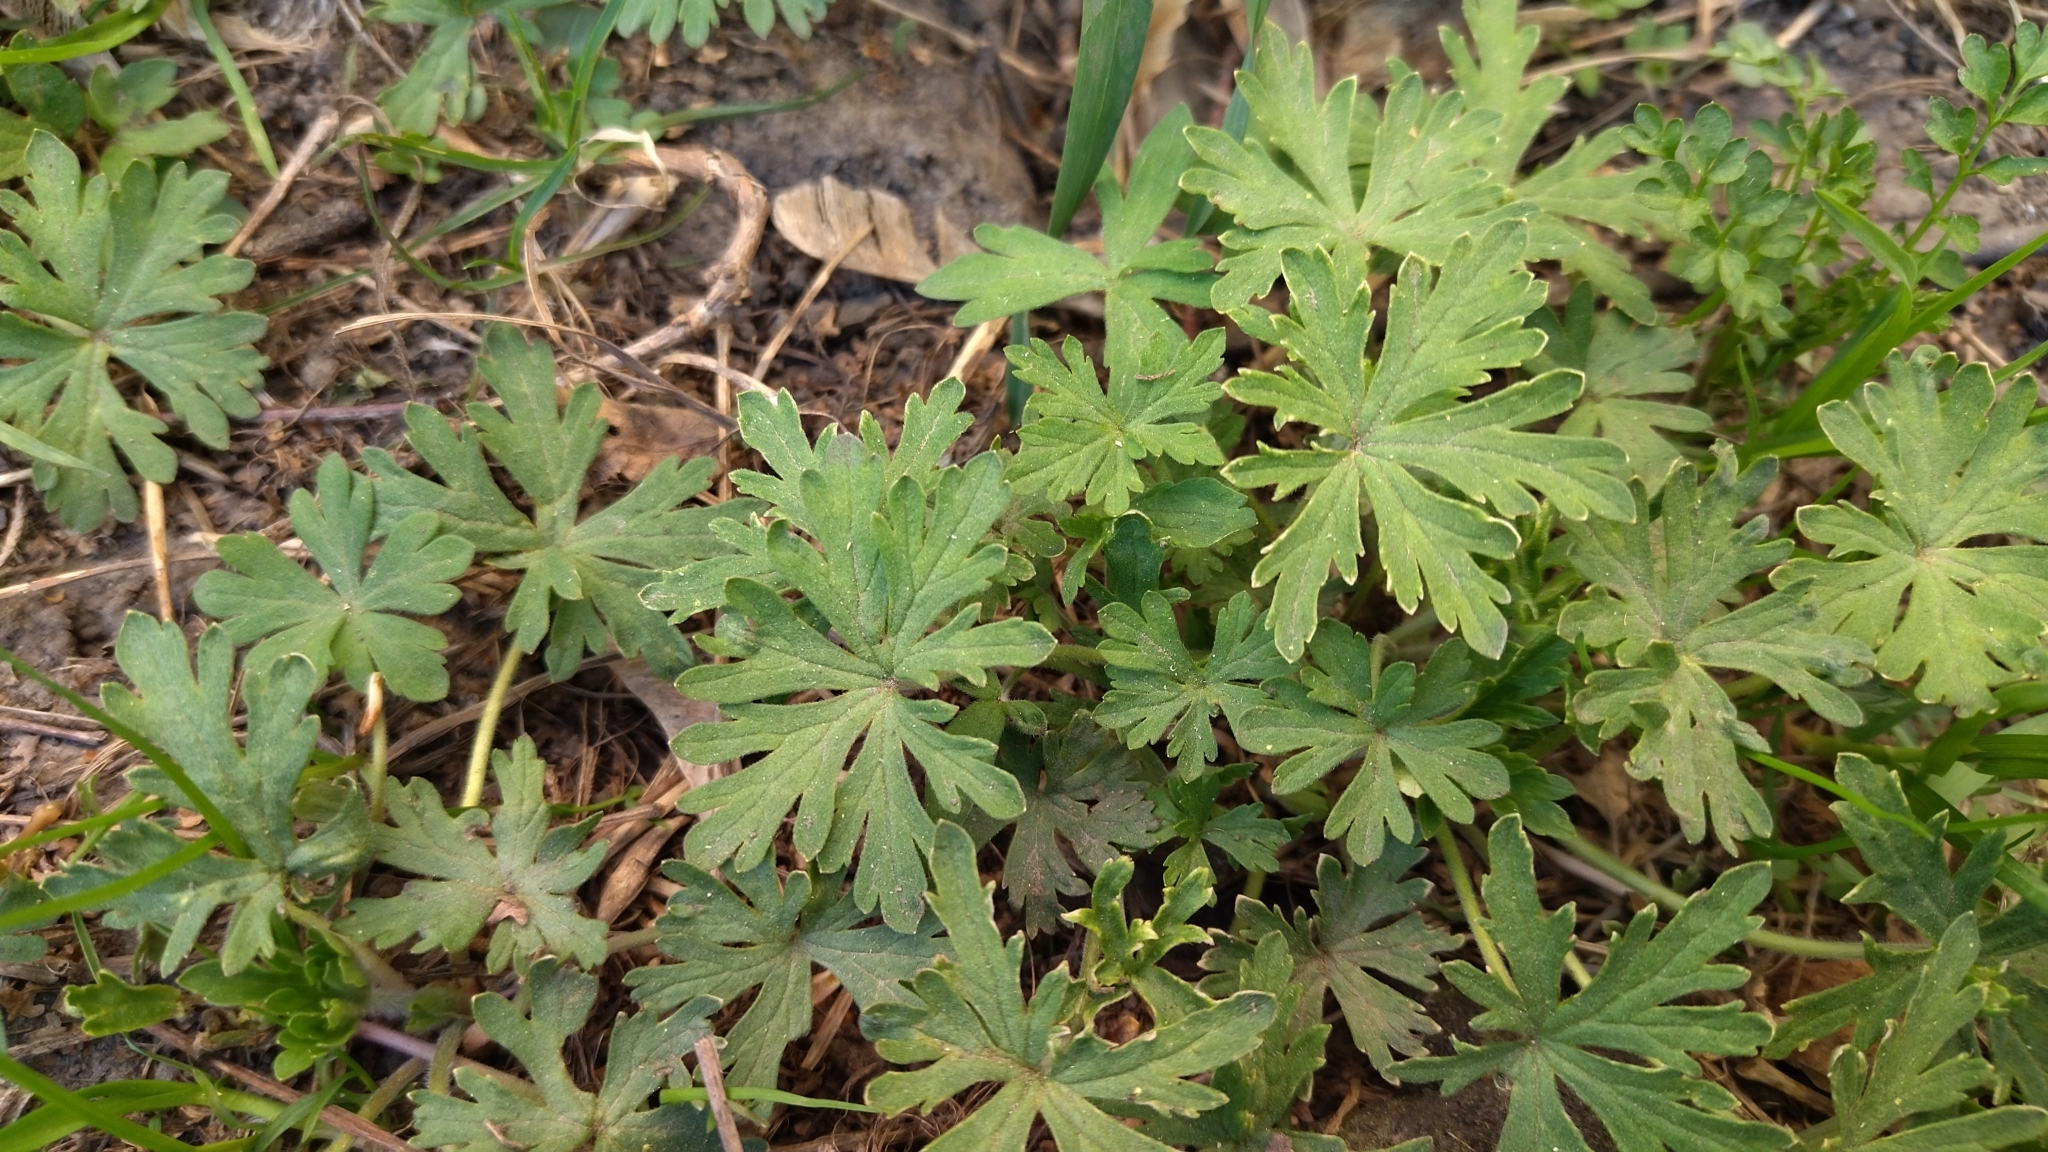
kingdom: Plantae
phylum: Tracheophyta
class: Magnoliopsida
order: Geraniales
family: Geraniaceae
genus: Geranium
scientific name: Geranium sibiricum
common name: Siberian crane's-bill
